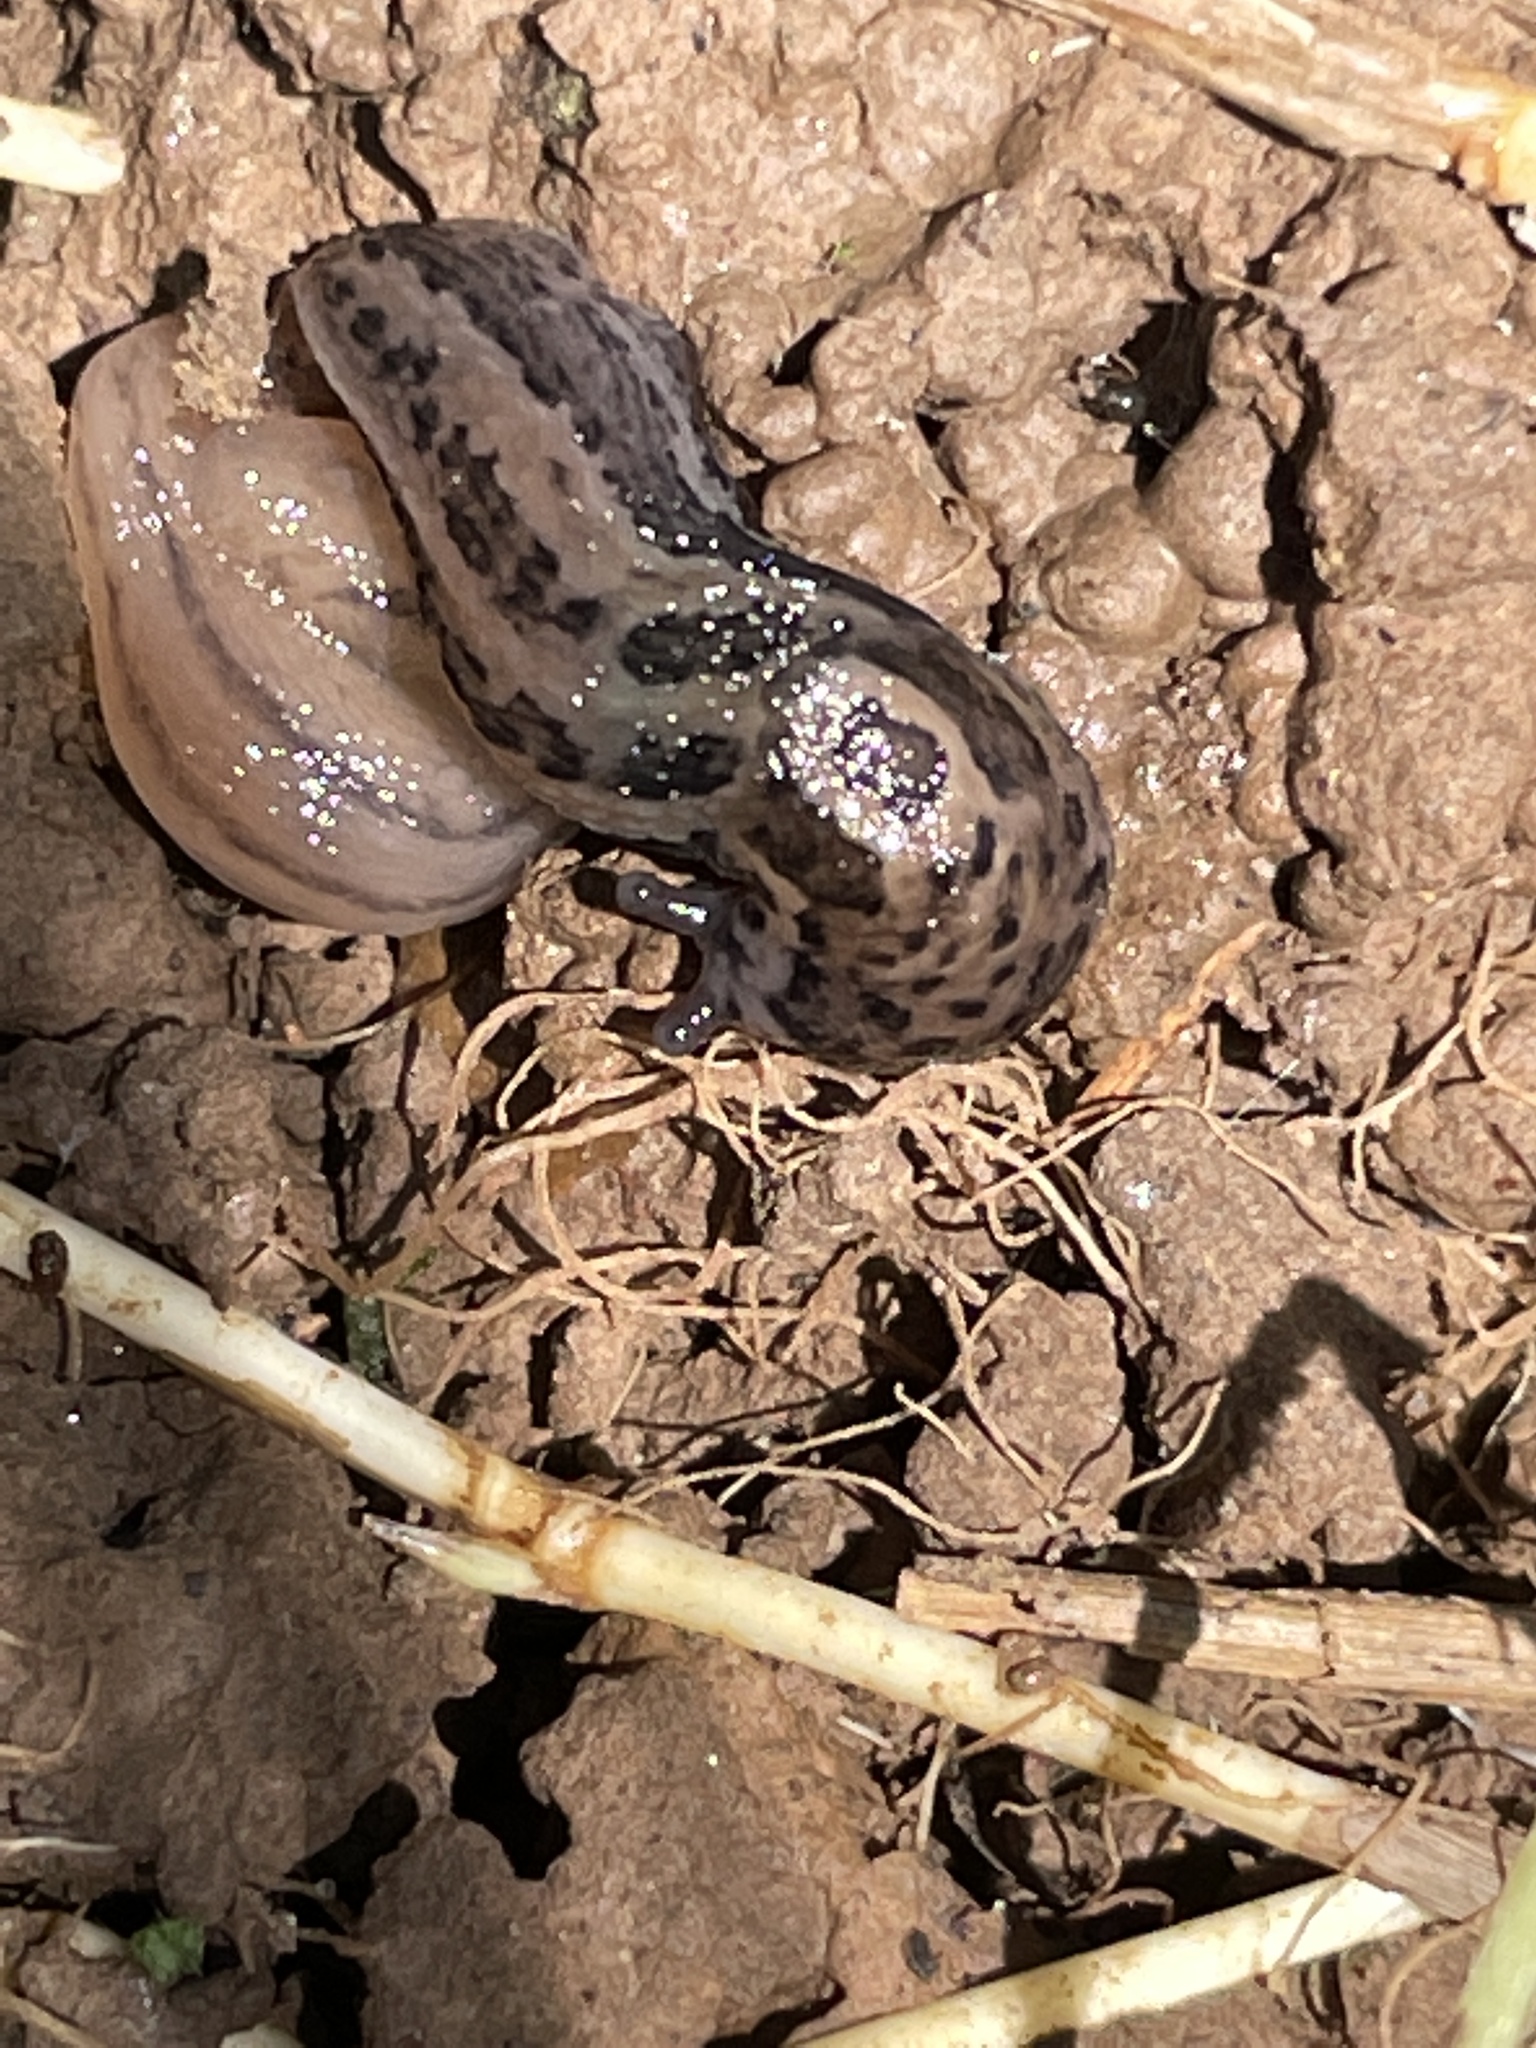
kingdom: Animalia
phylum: Mollusca
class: Gastropoda
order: Stylommatophora
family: Limacidae
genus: Limax
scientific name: Limax maximus
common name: Great grey slug
